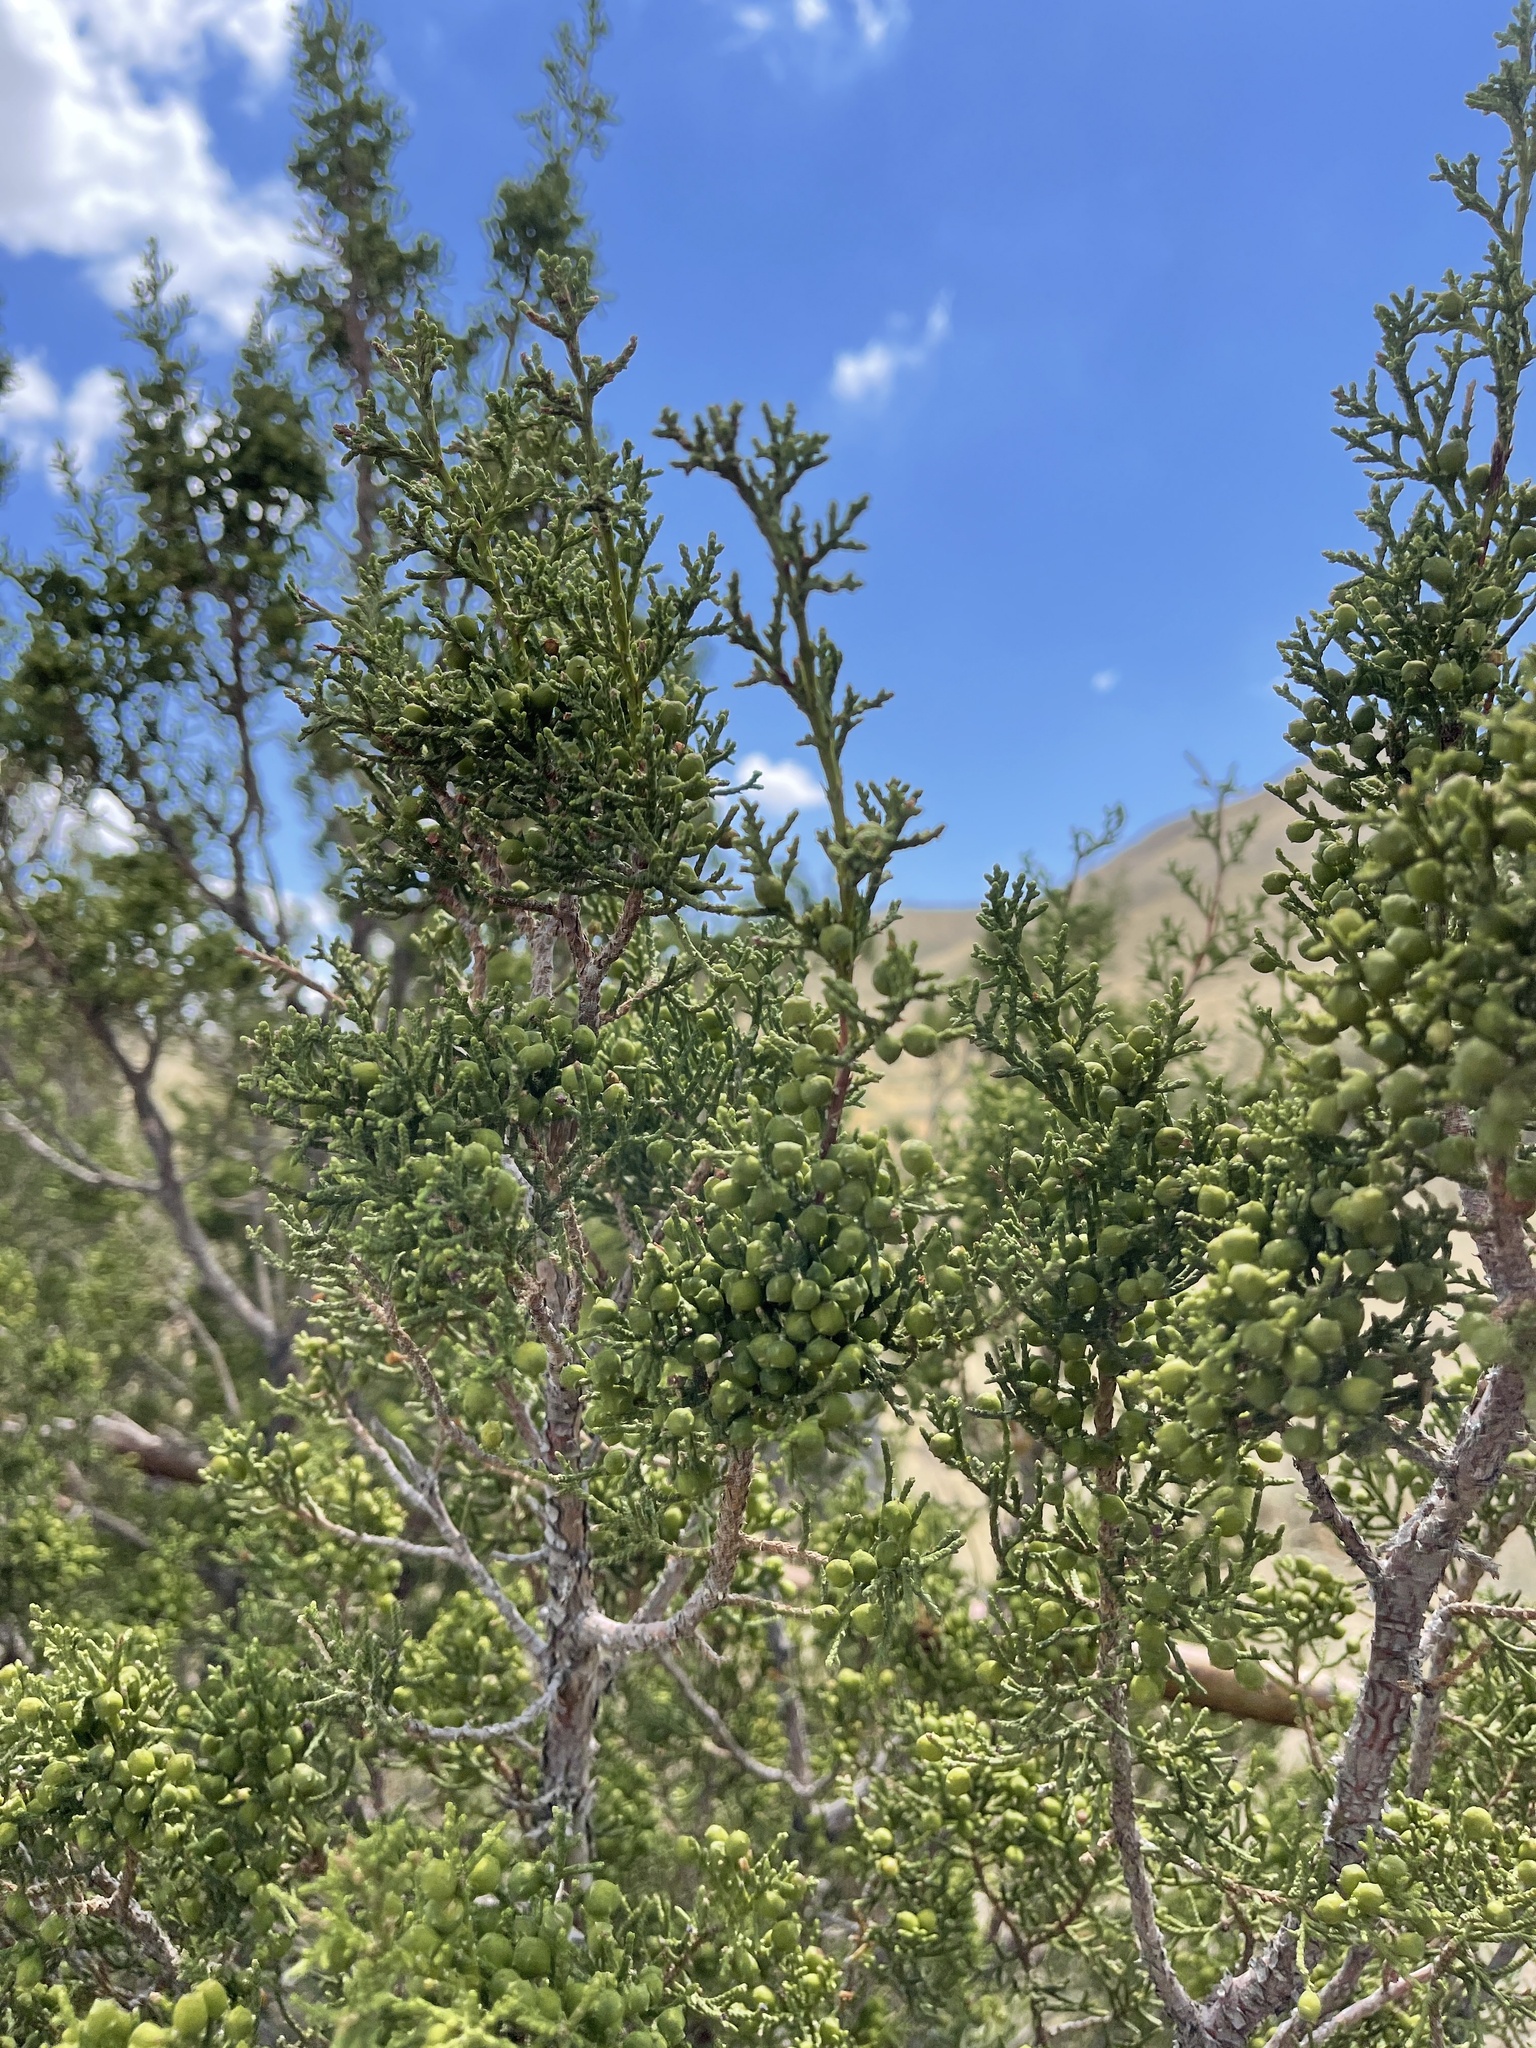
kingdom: Plantae
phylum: Tracheophyta
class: Pinopsida
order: Pinales
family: Cupressaceae
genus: Juniperus
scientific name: Juniperus pinchotii
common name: Pinchot juniper
